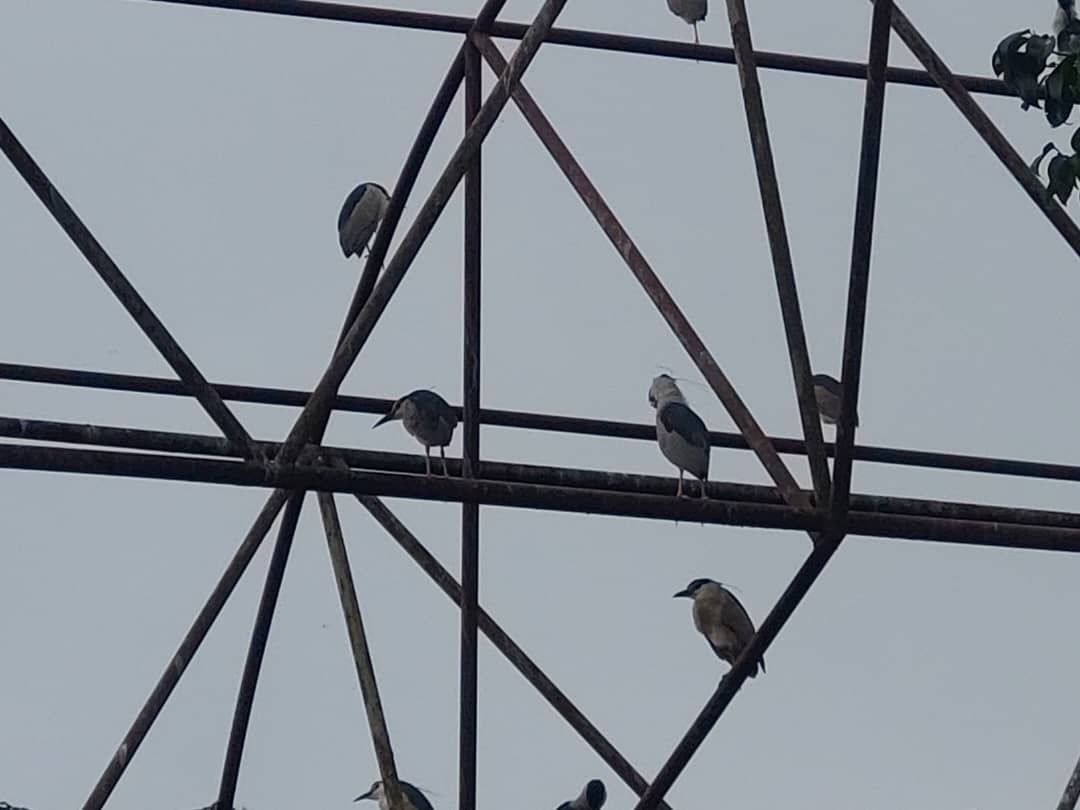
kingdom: Animalia
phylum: Chordata
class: Aves
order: Pelecaniformes
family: Ardeidae
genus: Nycticorax
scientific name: Nycticorax nycticorax
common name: Black-crowned night heron
